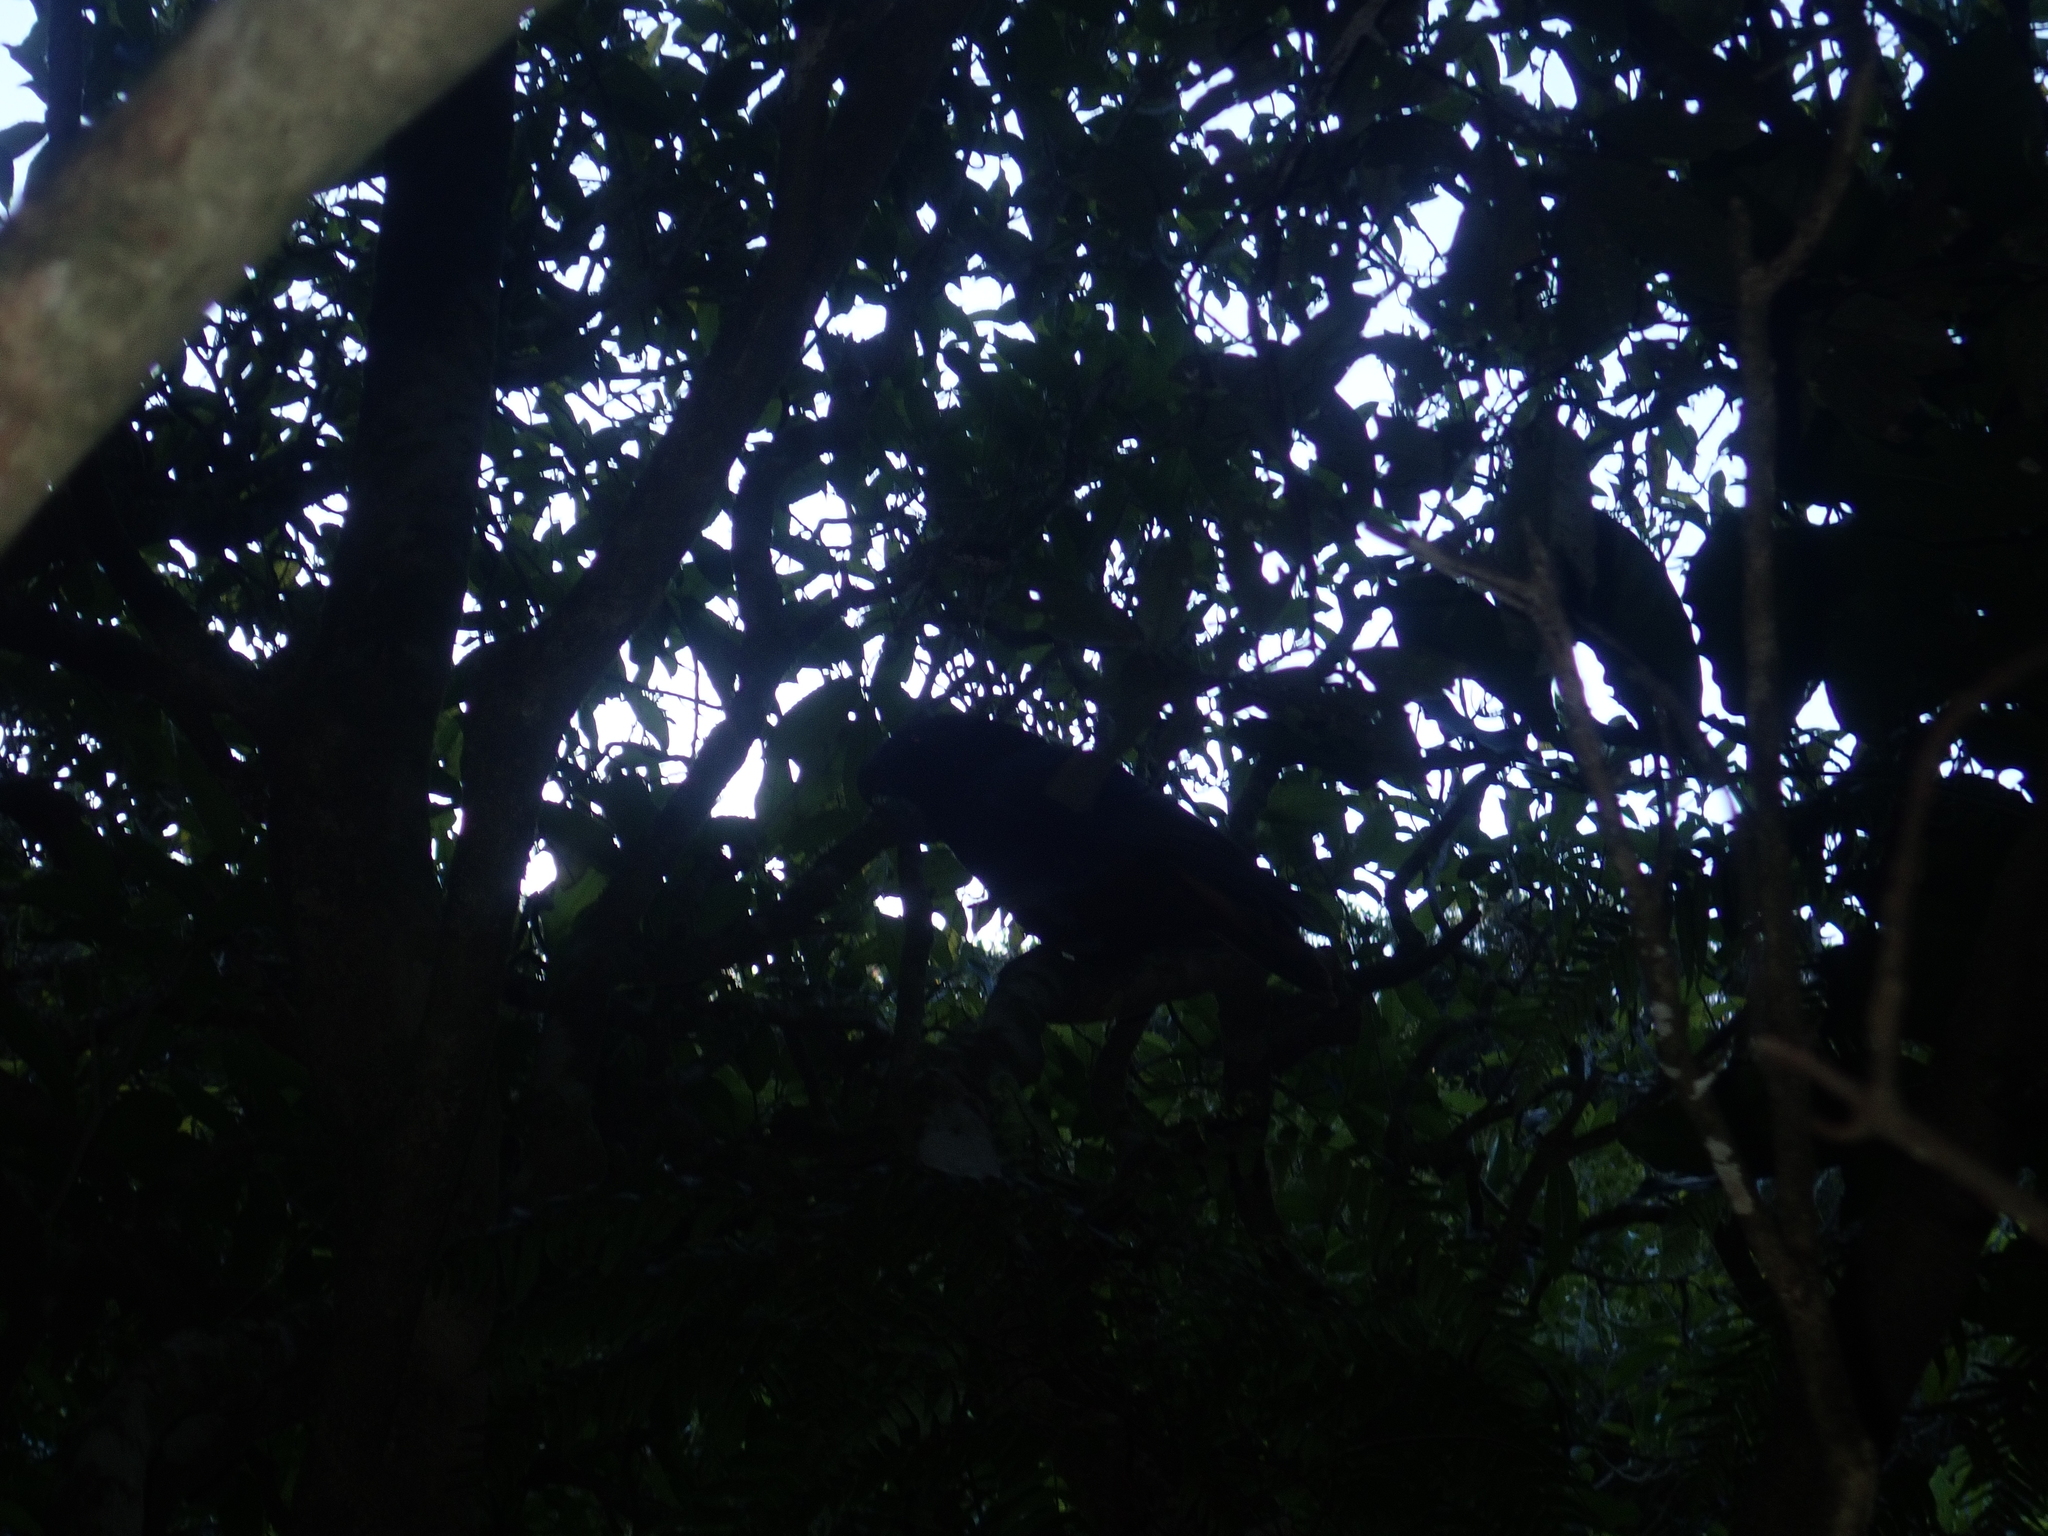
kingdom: Animalia
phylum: Chordata
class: Aves
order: Psittaciformes
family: Psittacidae
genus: Nestor
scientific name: Nestor meridionalis
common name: New zealand kaka
